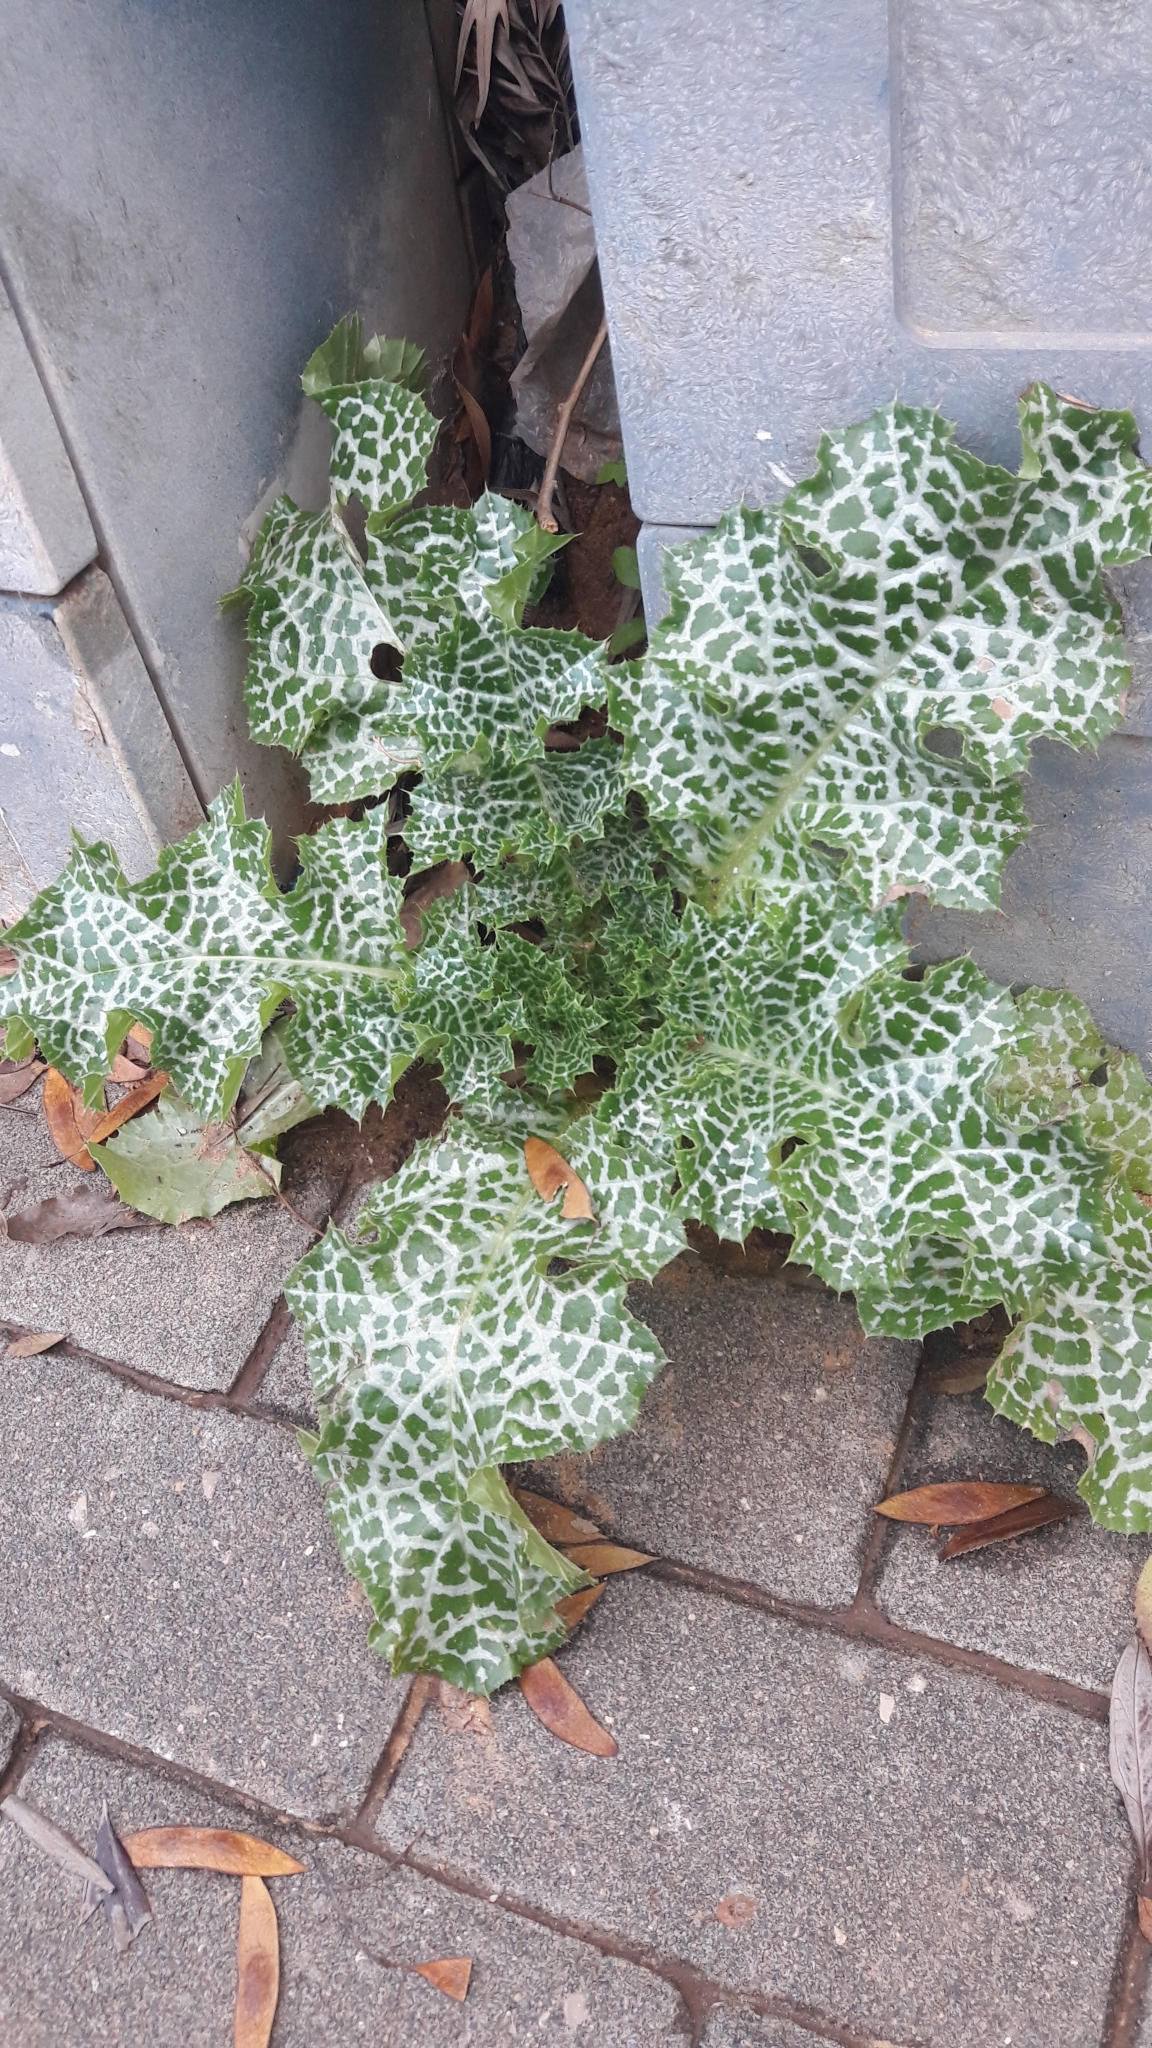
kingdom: Plantae
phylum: Tracheophyta
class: Magnoliopsida
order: Asterales
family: Asteraceae
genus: Silybum
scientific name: Silybum marianum
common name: Milk thistle
